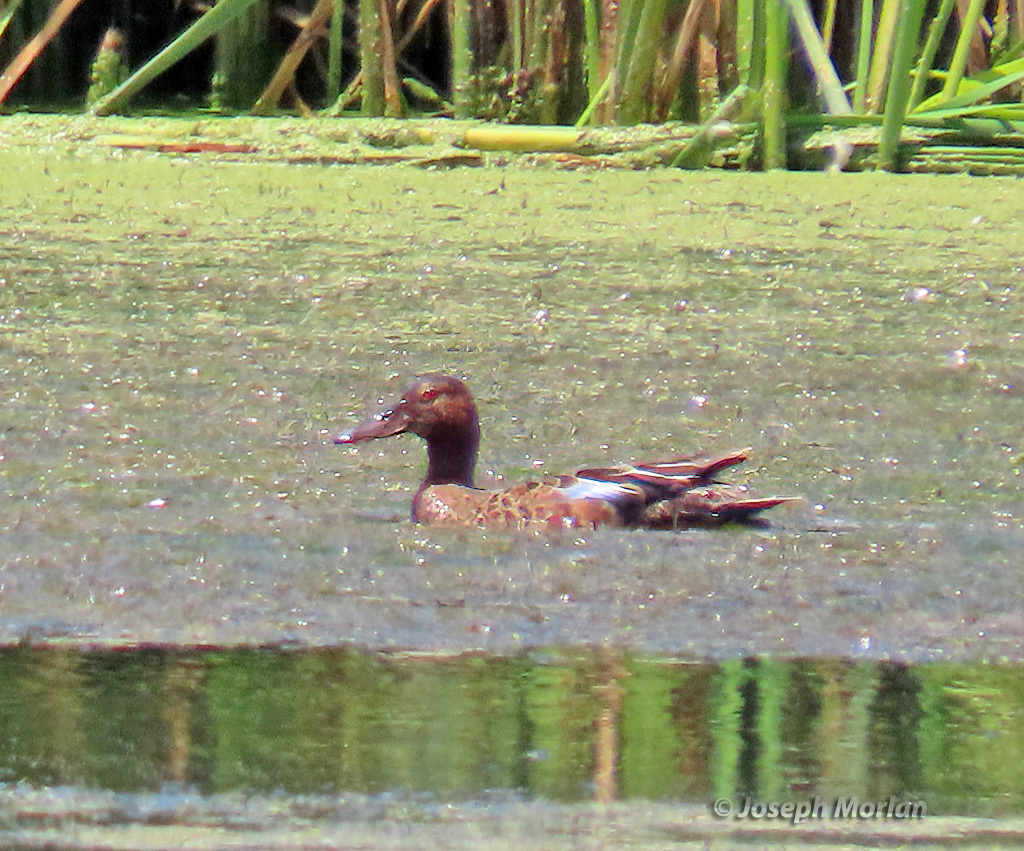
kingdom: Animalia
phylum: Chordata
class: Aves
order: Anseriformes
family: Anatidae
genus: Spatula
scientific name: Spatula cyanoptera
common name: Cinnamon teal
